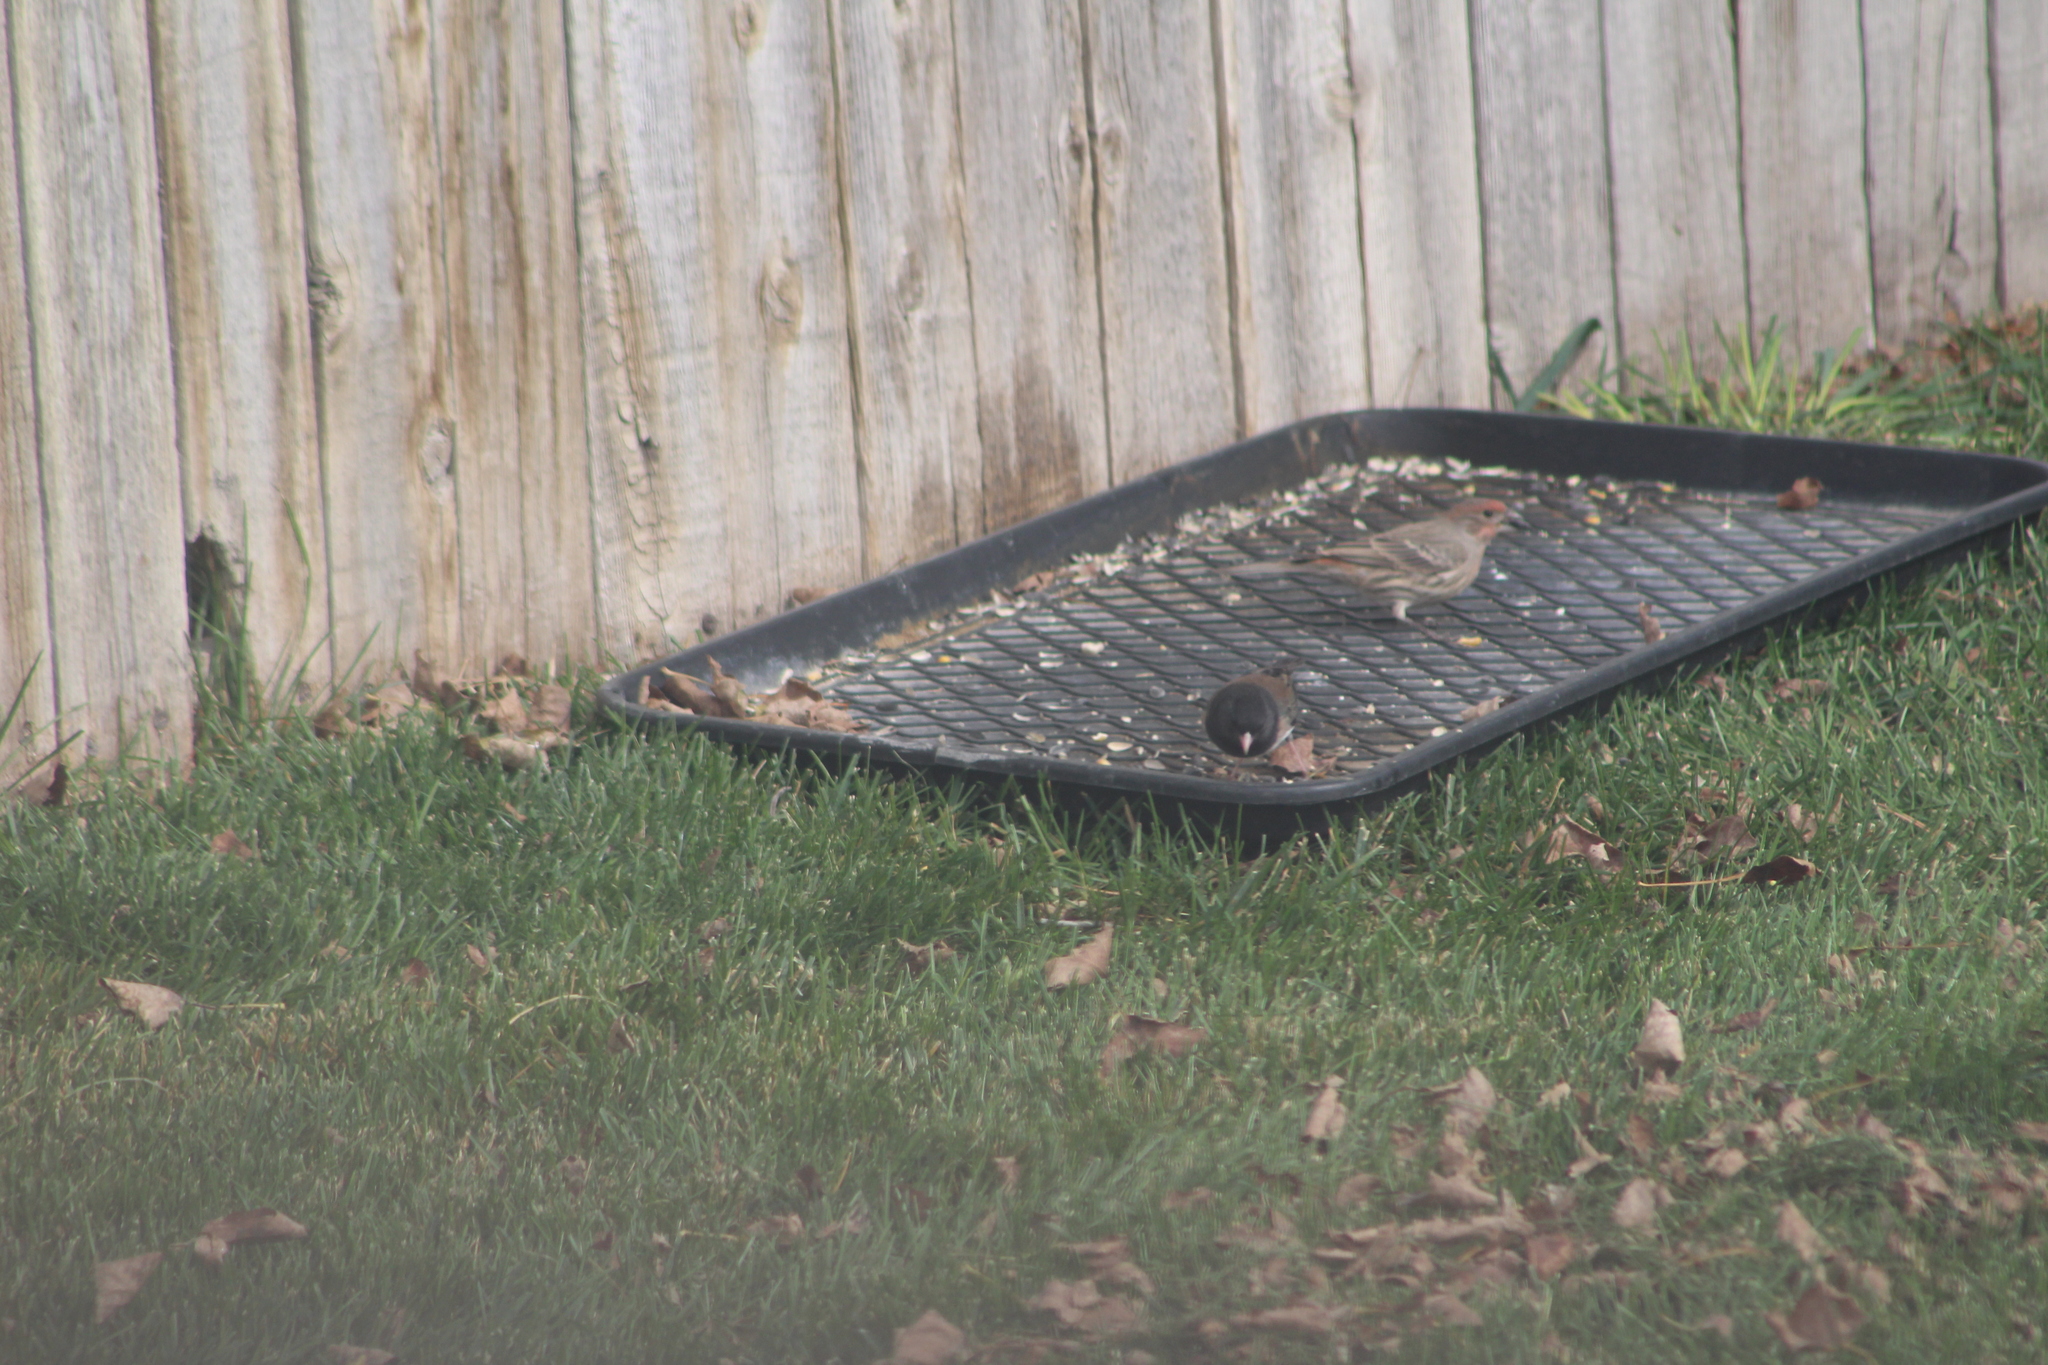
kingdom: Animalia
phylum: Chordata
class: Aves
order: Passeriformes
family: Passerellidae
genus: Junco
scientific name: Junco hyemalis
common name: Dark-eyed junco
